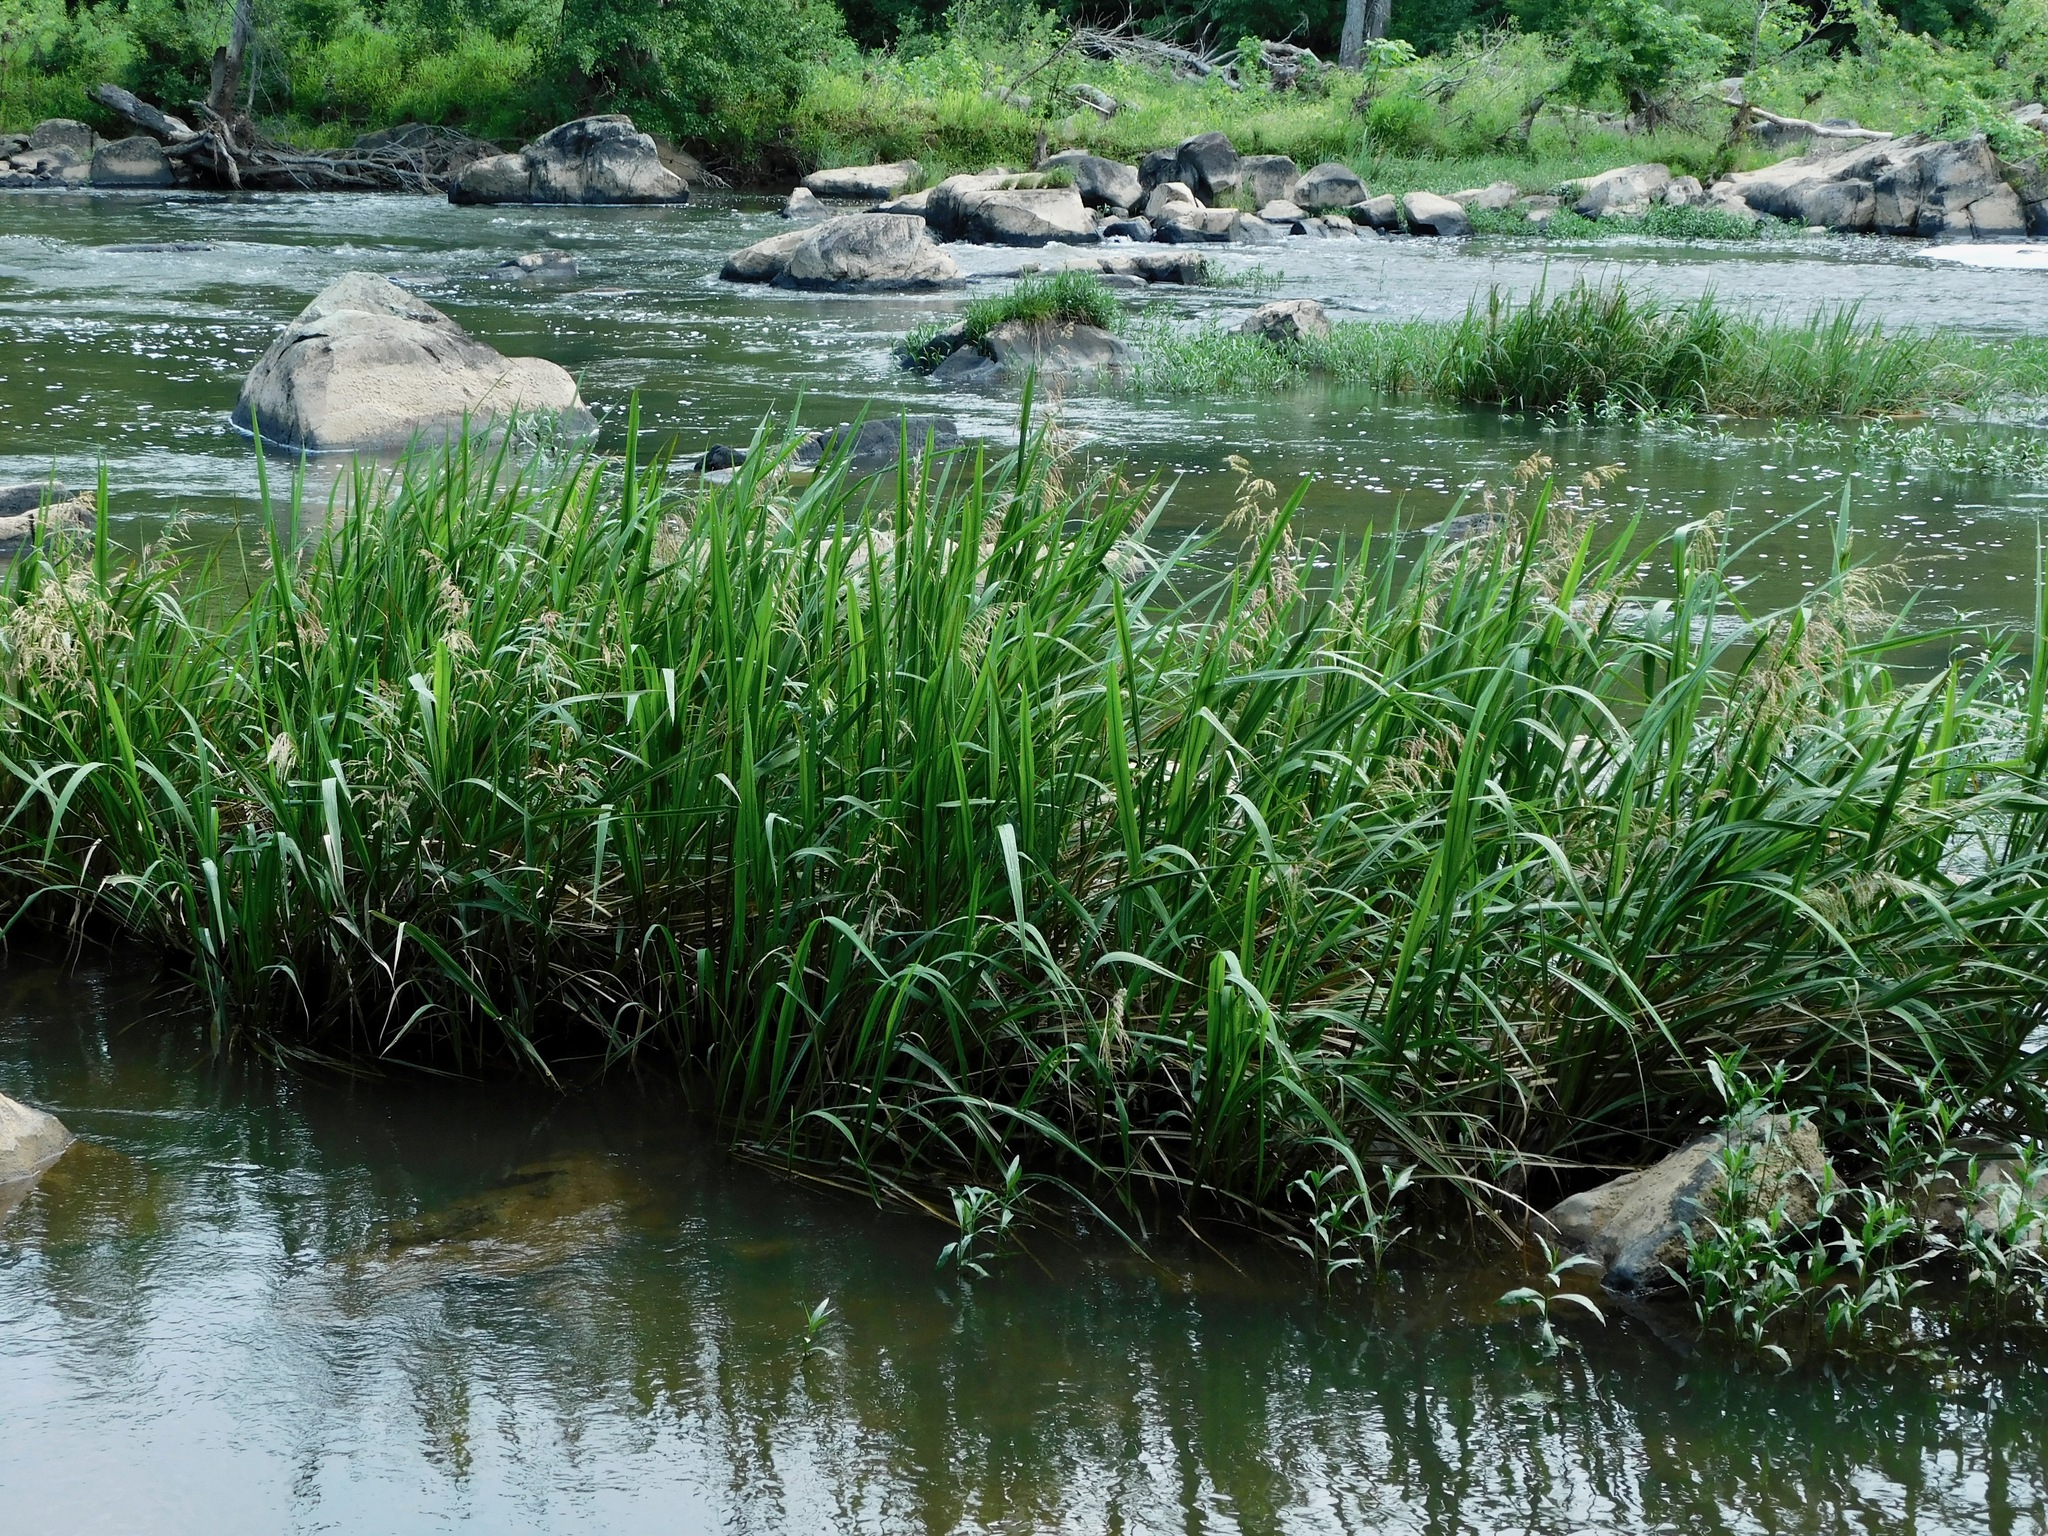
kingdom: Plantae
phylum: Tracheophyta
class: Liliopsida
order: Poales
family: Poaceae
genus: Zizaniopsis
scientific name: Zizaniopsis miliacea
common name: Giant-cutgrass
